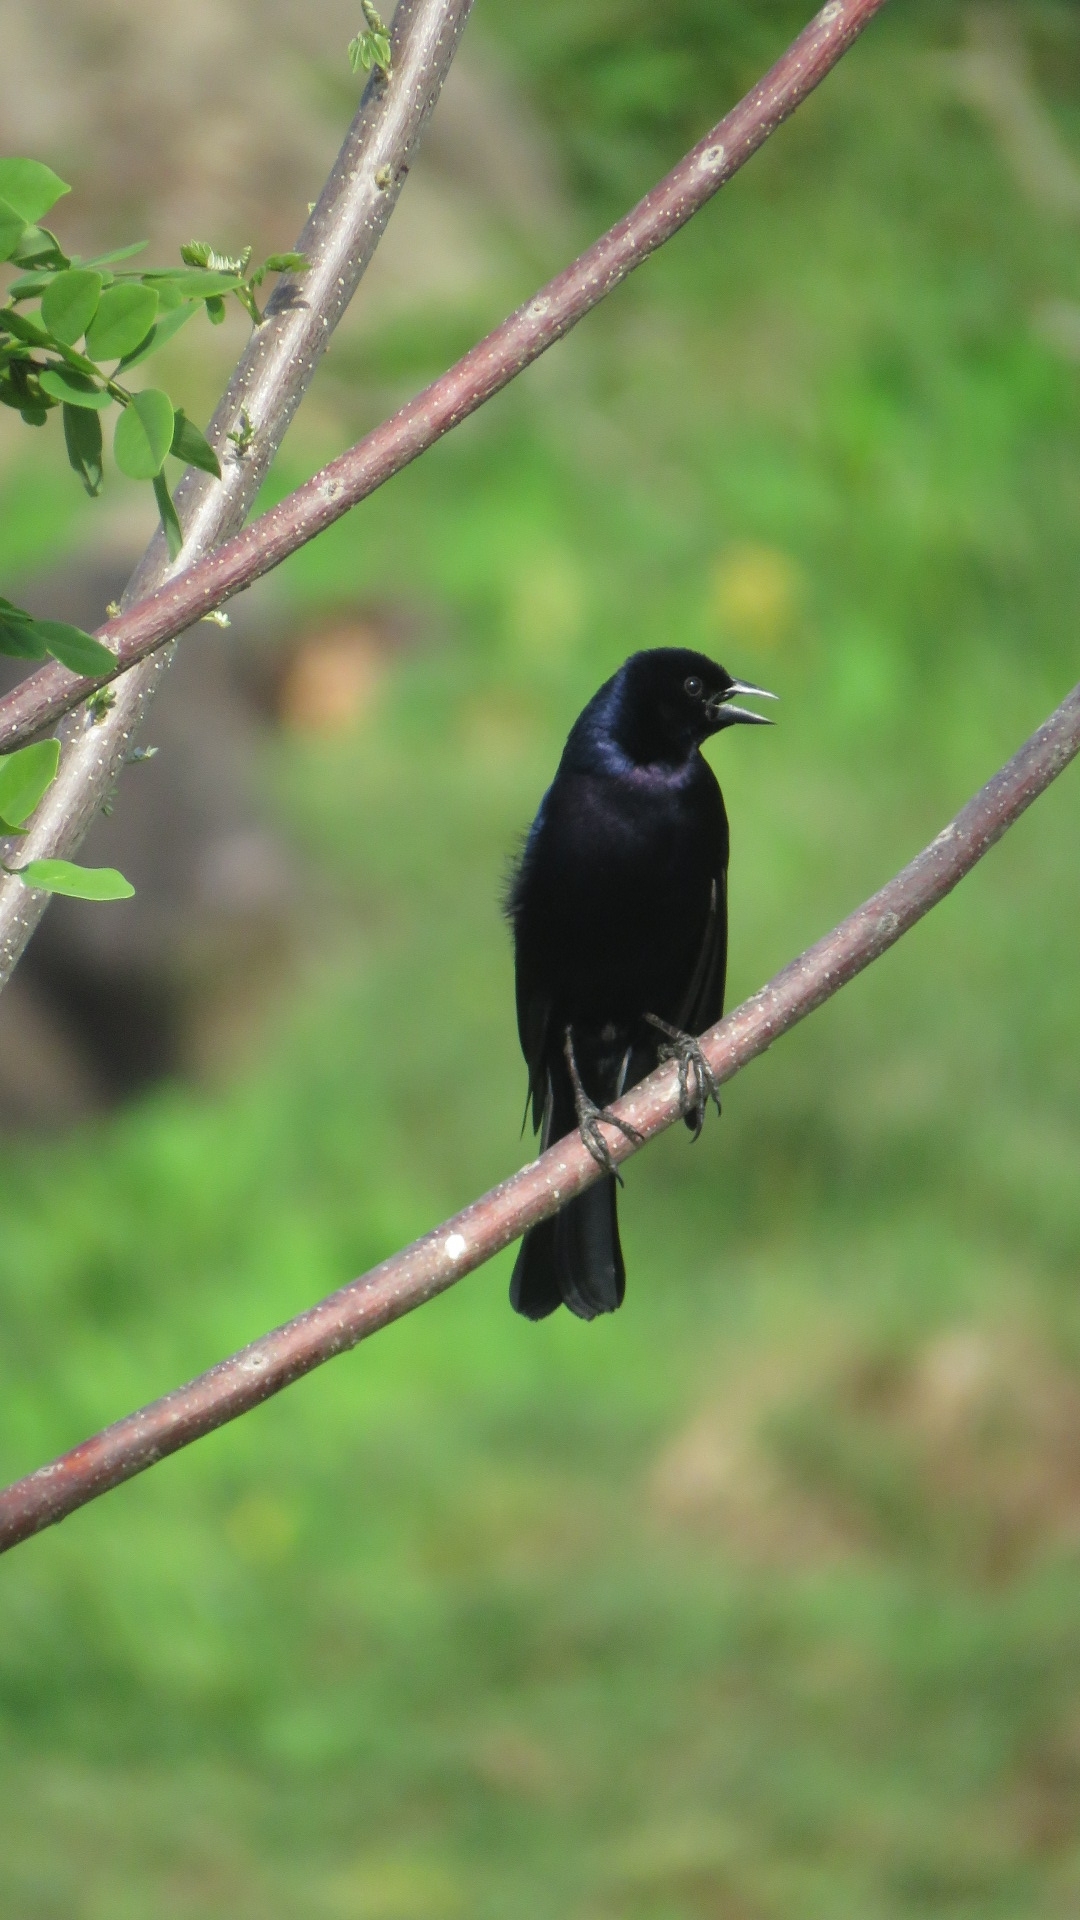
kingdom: Animalia
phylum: Chordata
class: Aves
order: Passeriformes
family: Icteridae
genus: Molothrus
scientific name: Molothrus bonariensis
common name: Shiny cowbird
